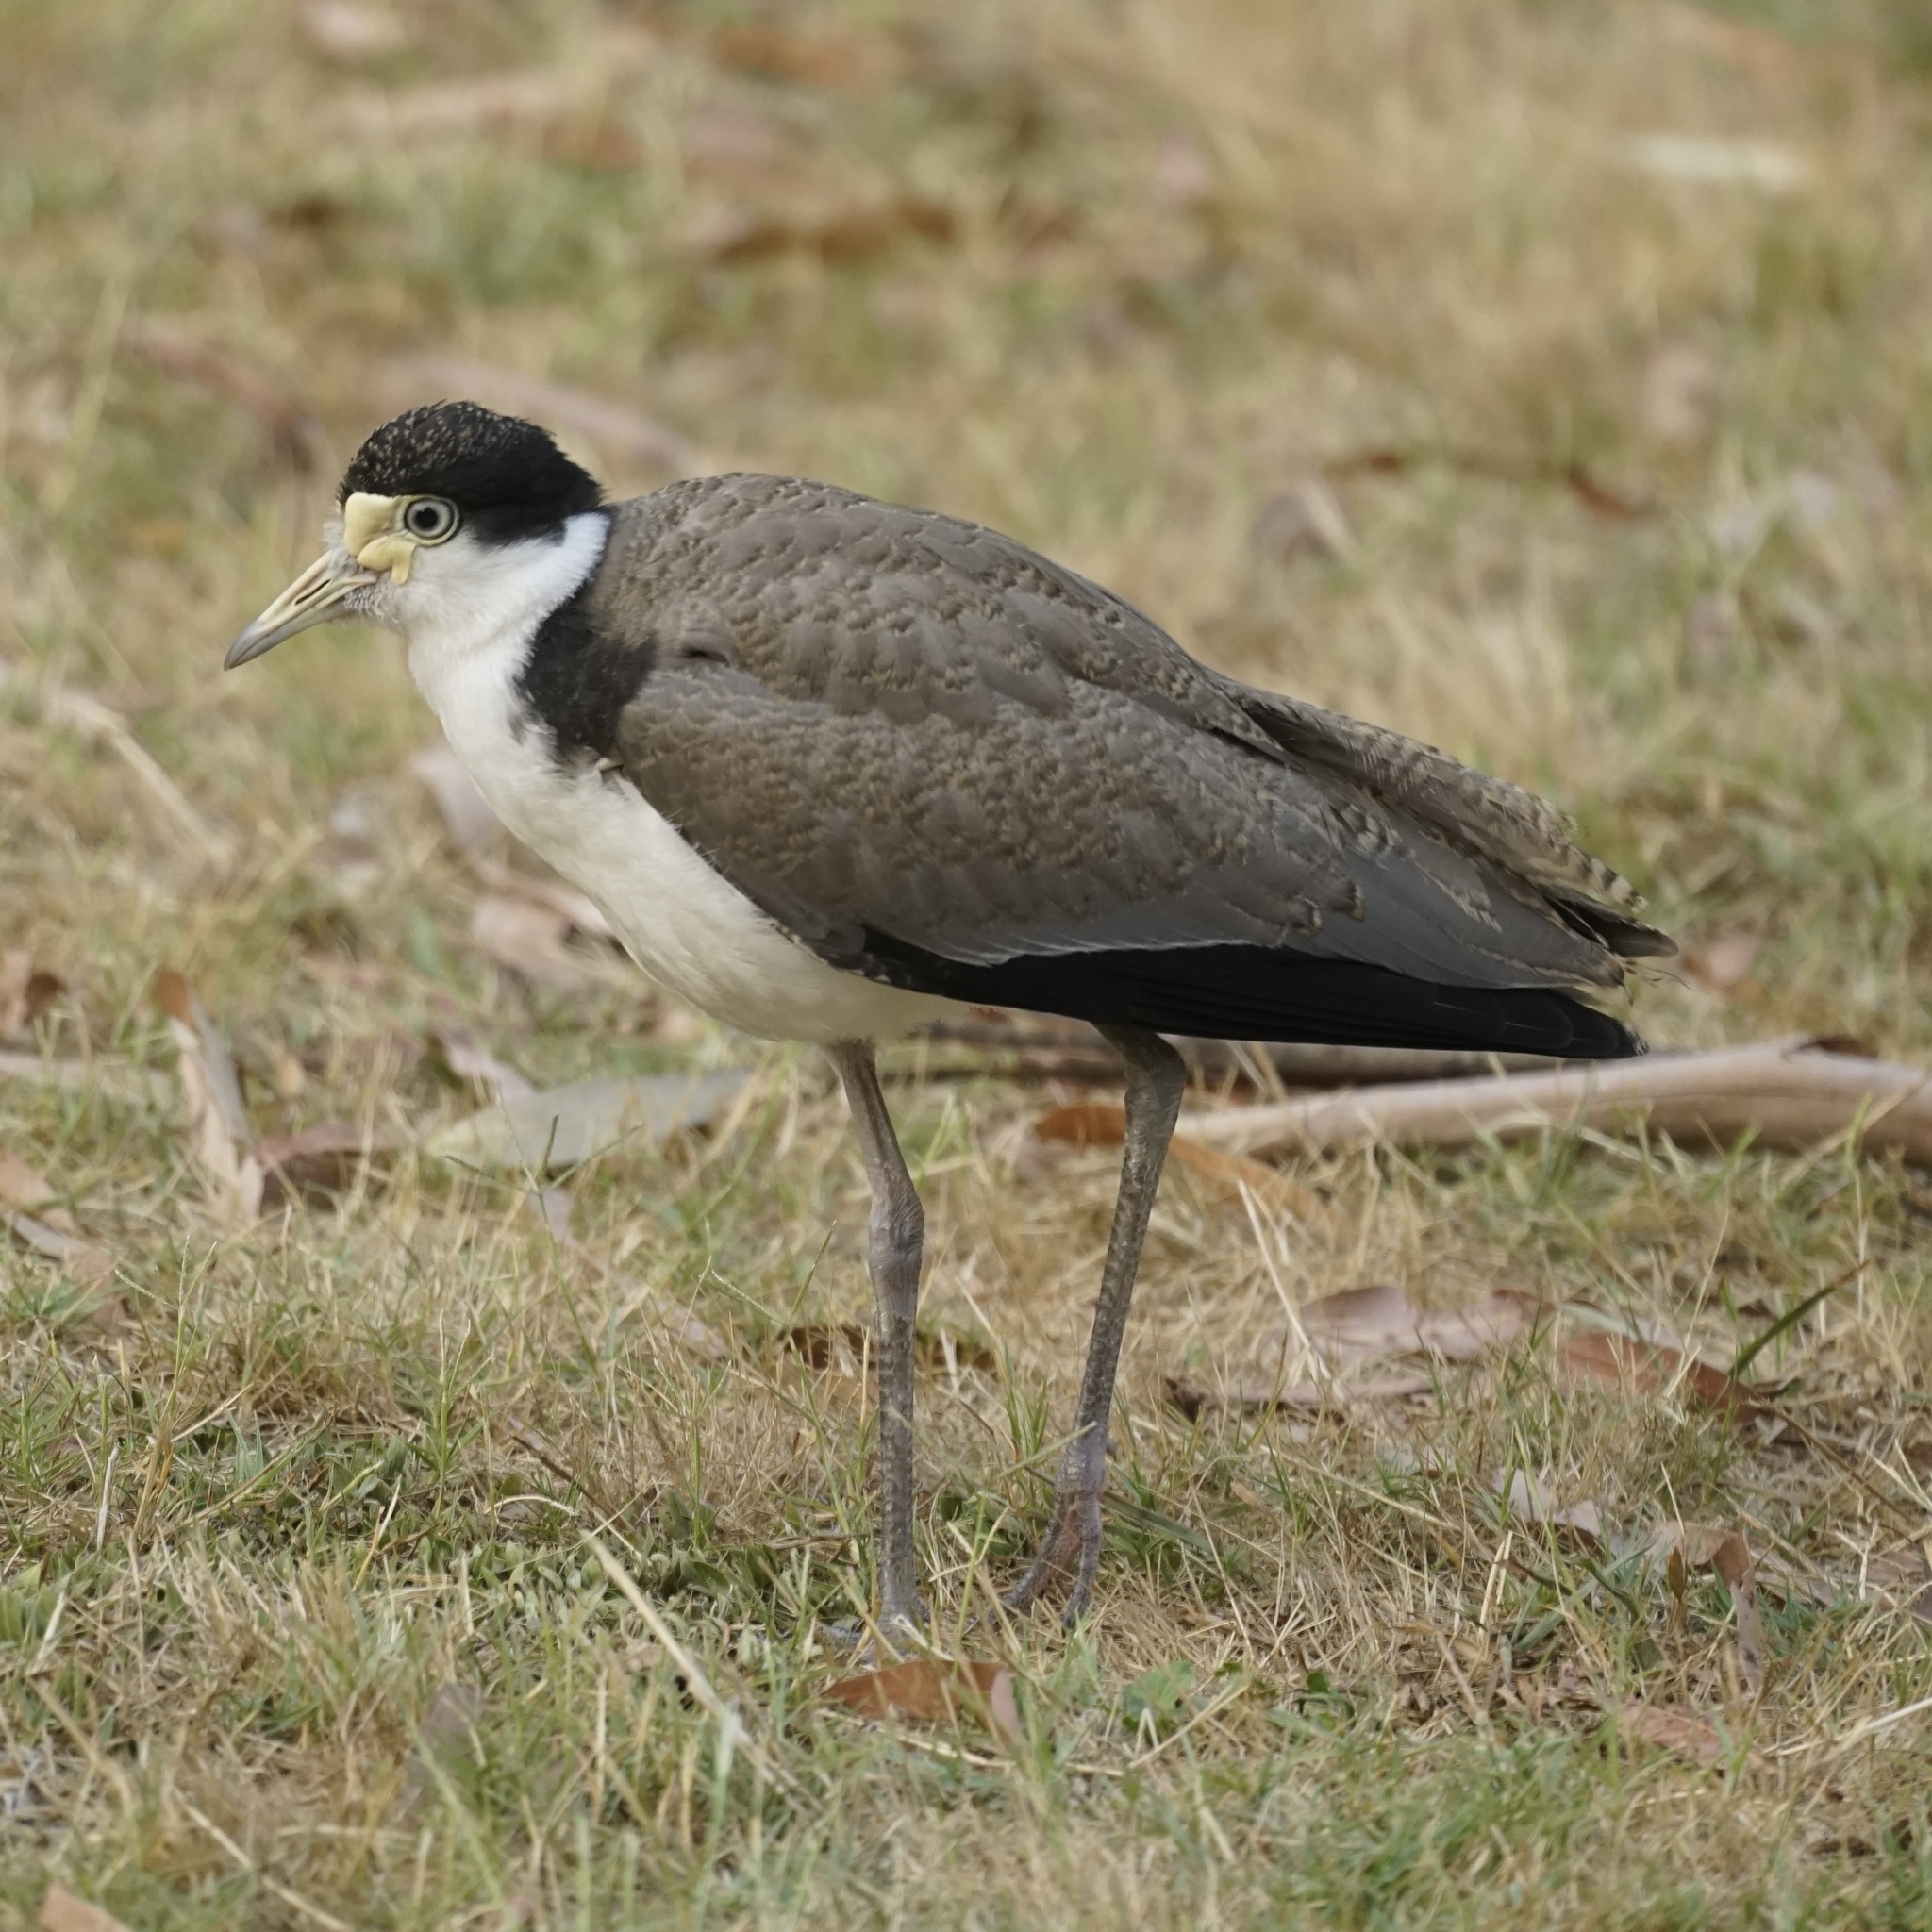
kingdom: Animalia
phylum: Chordata
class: Aves
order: Charadriiformes
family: Charadriidae
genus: Vanellus
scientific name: Vanellus miles
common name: Masked lapwing
